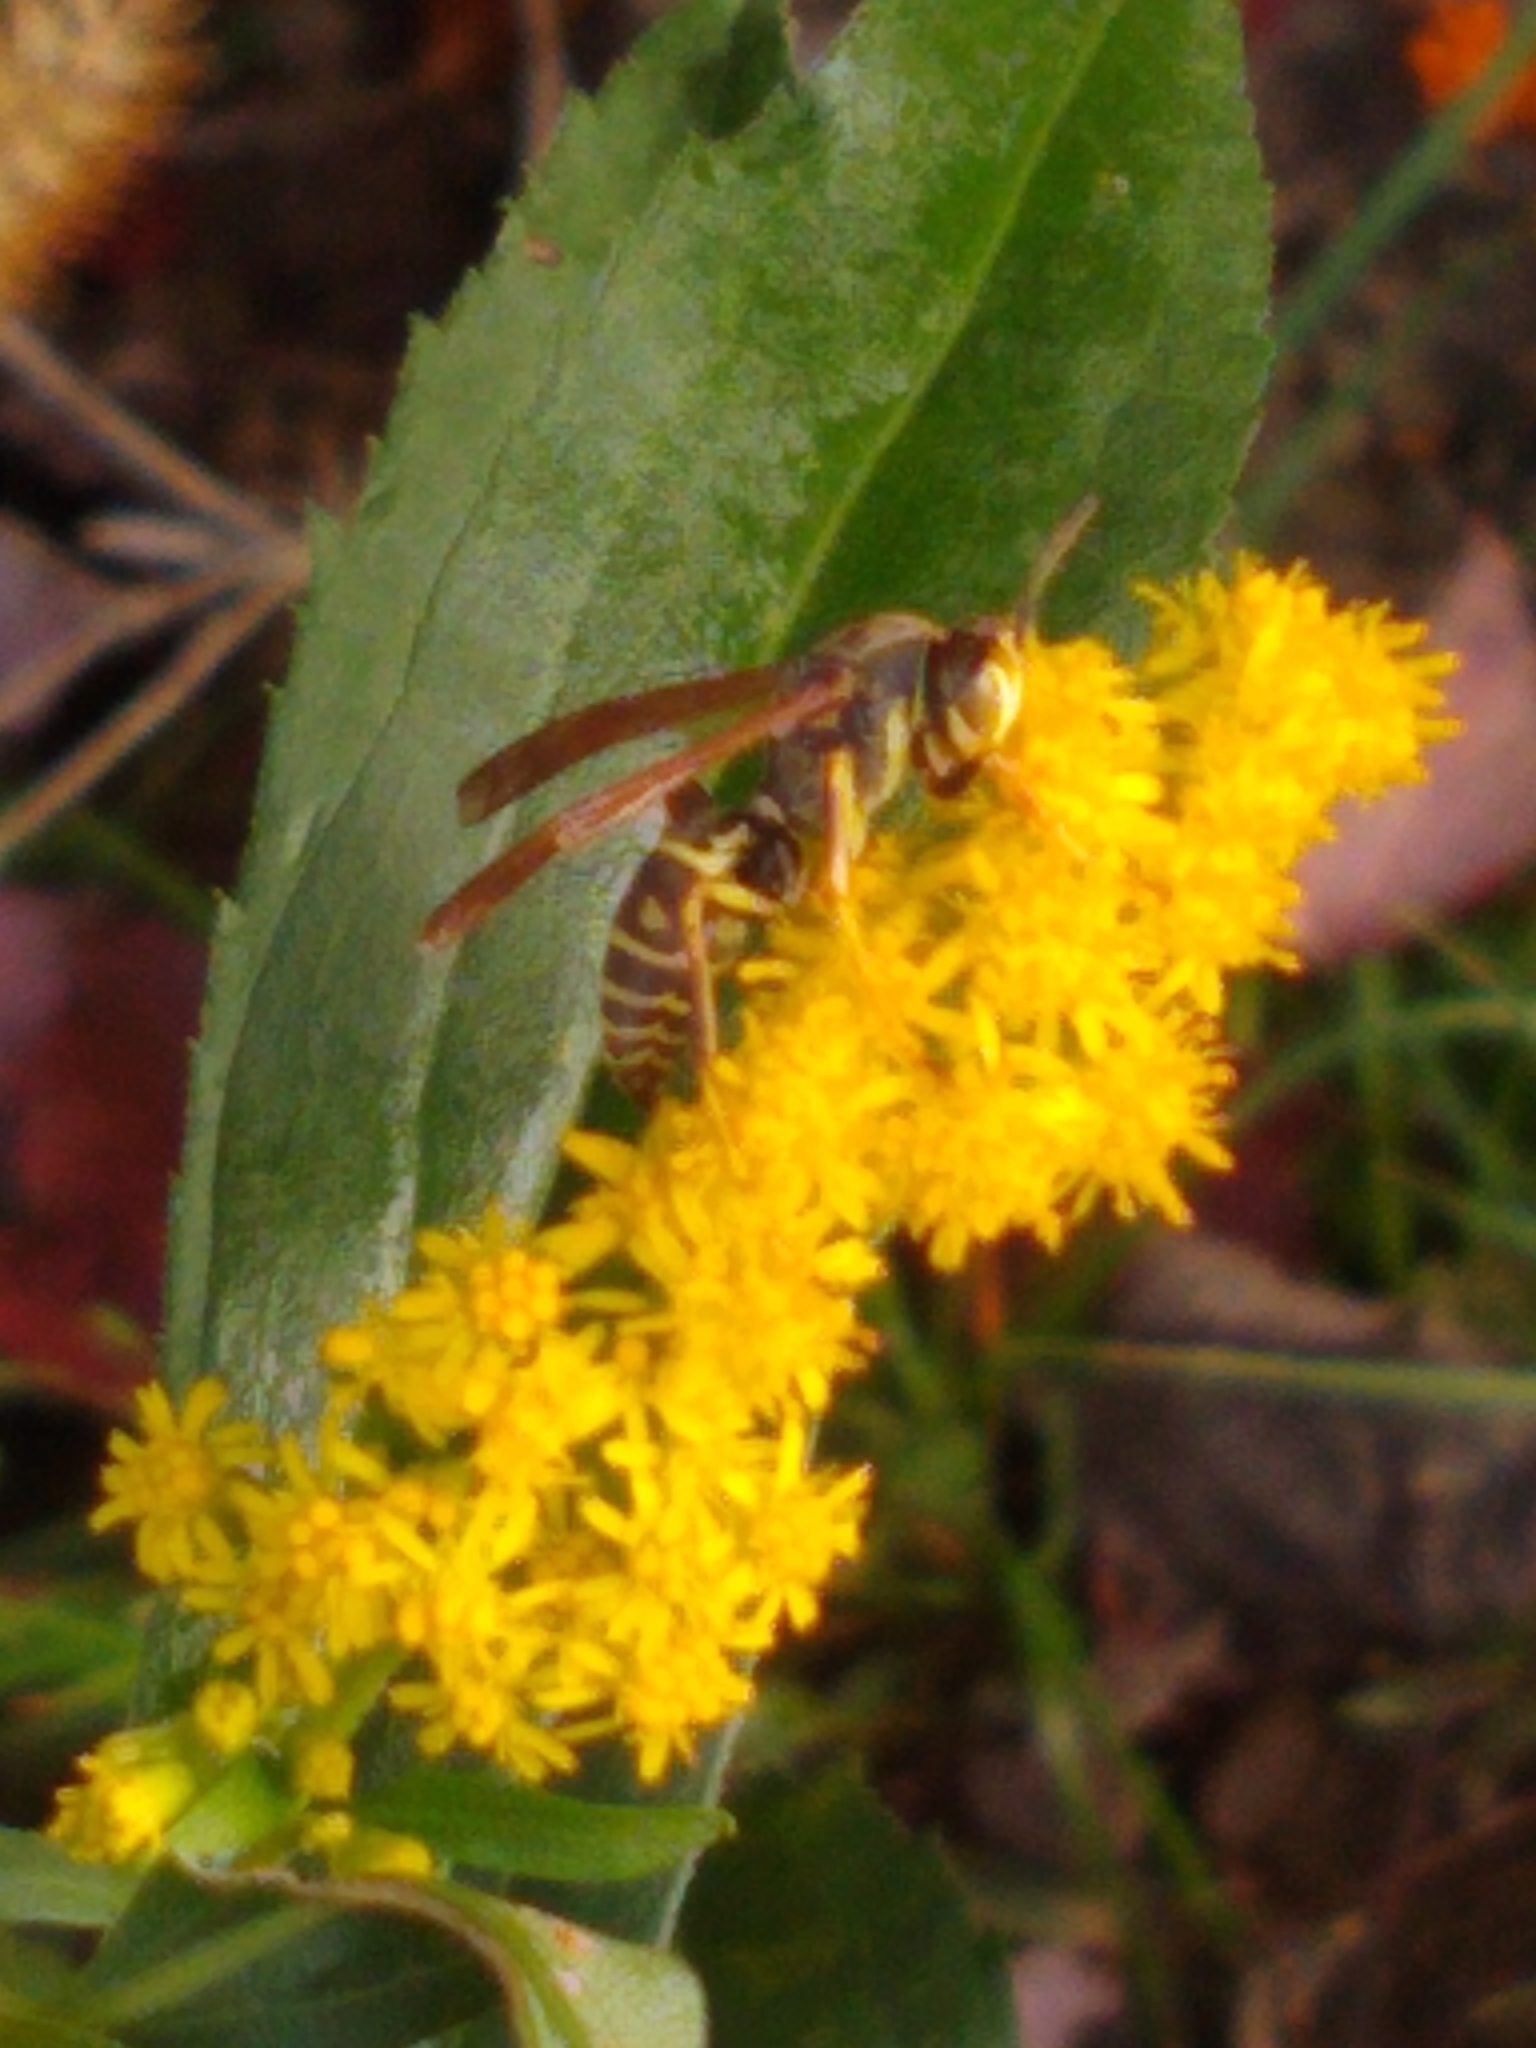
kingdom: Animalia
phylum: Arthropoda
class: Insecta
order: Hymenoptera
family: Eumenidae
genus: Polistes
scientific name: Polistes fuscatus
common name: Dark paper wasp
